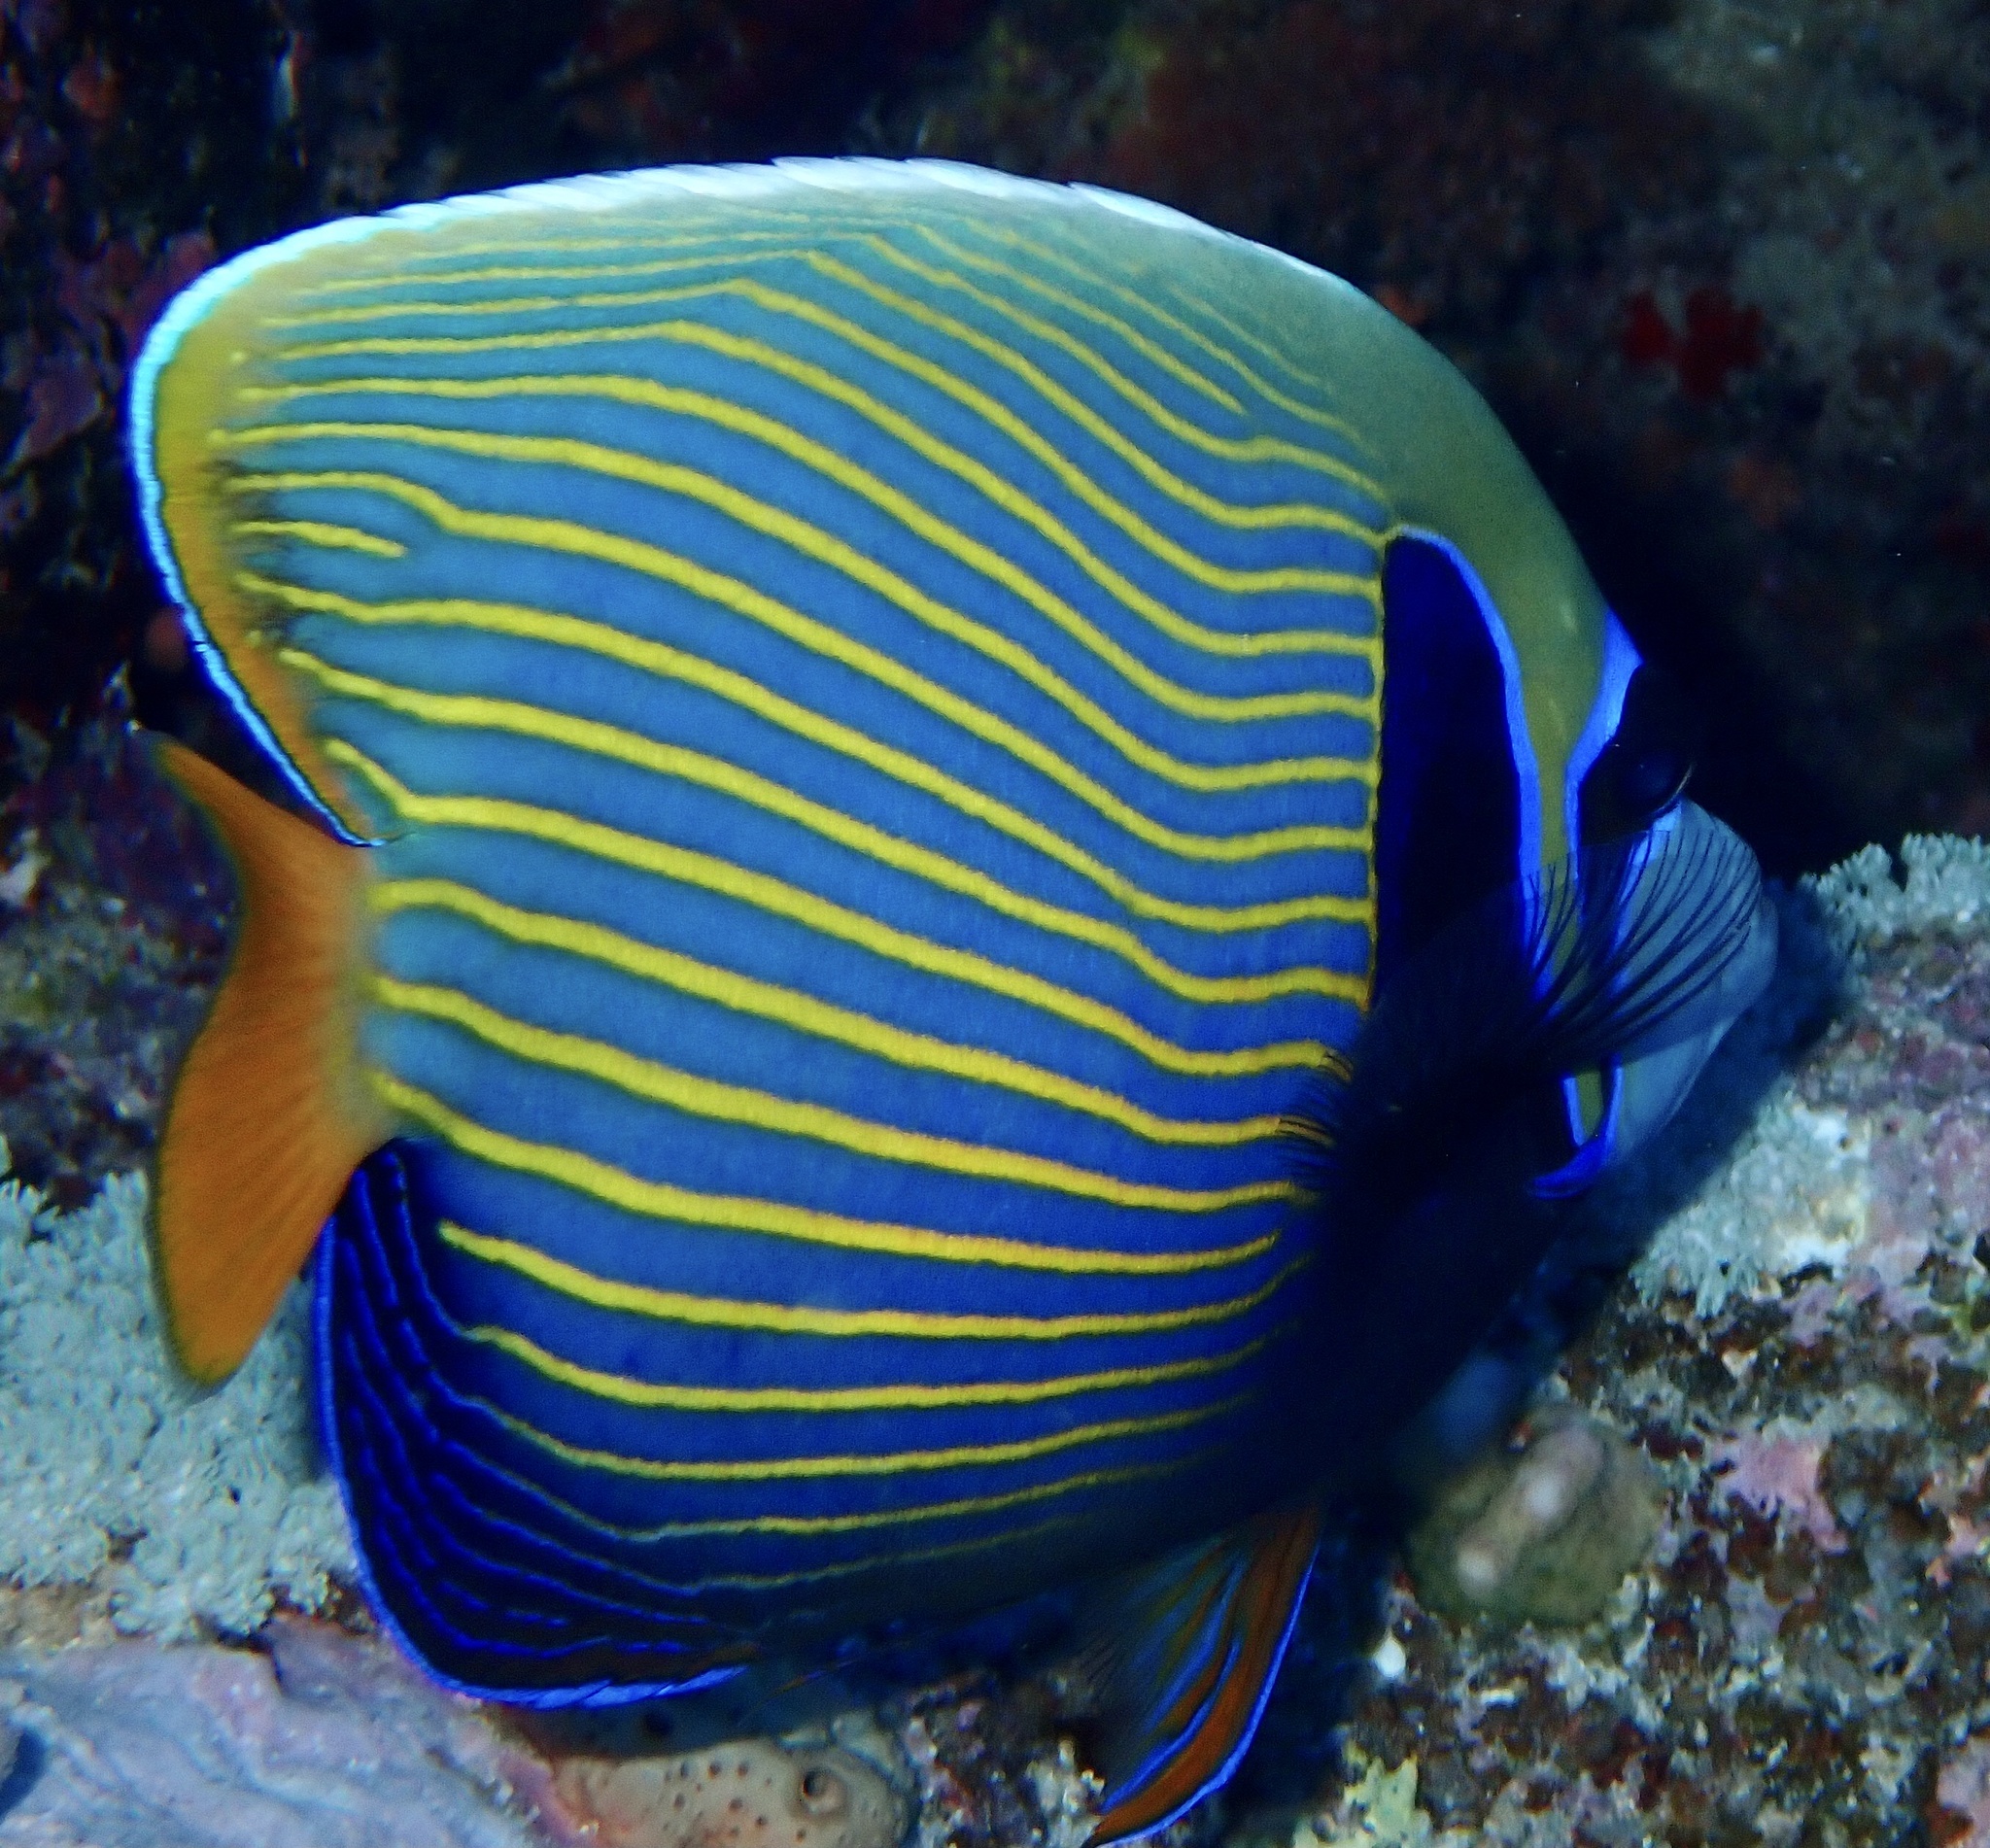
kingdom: Animalia
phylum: Chordata
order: Perciformes
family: Pomacanthidae
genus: Pomacanthus
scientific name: Pomacanthus imperator
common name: Emperor angelfish
